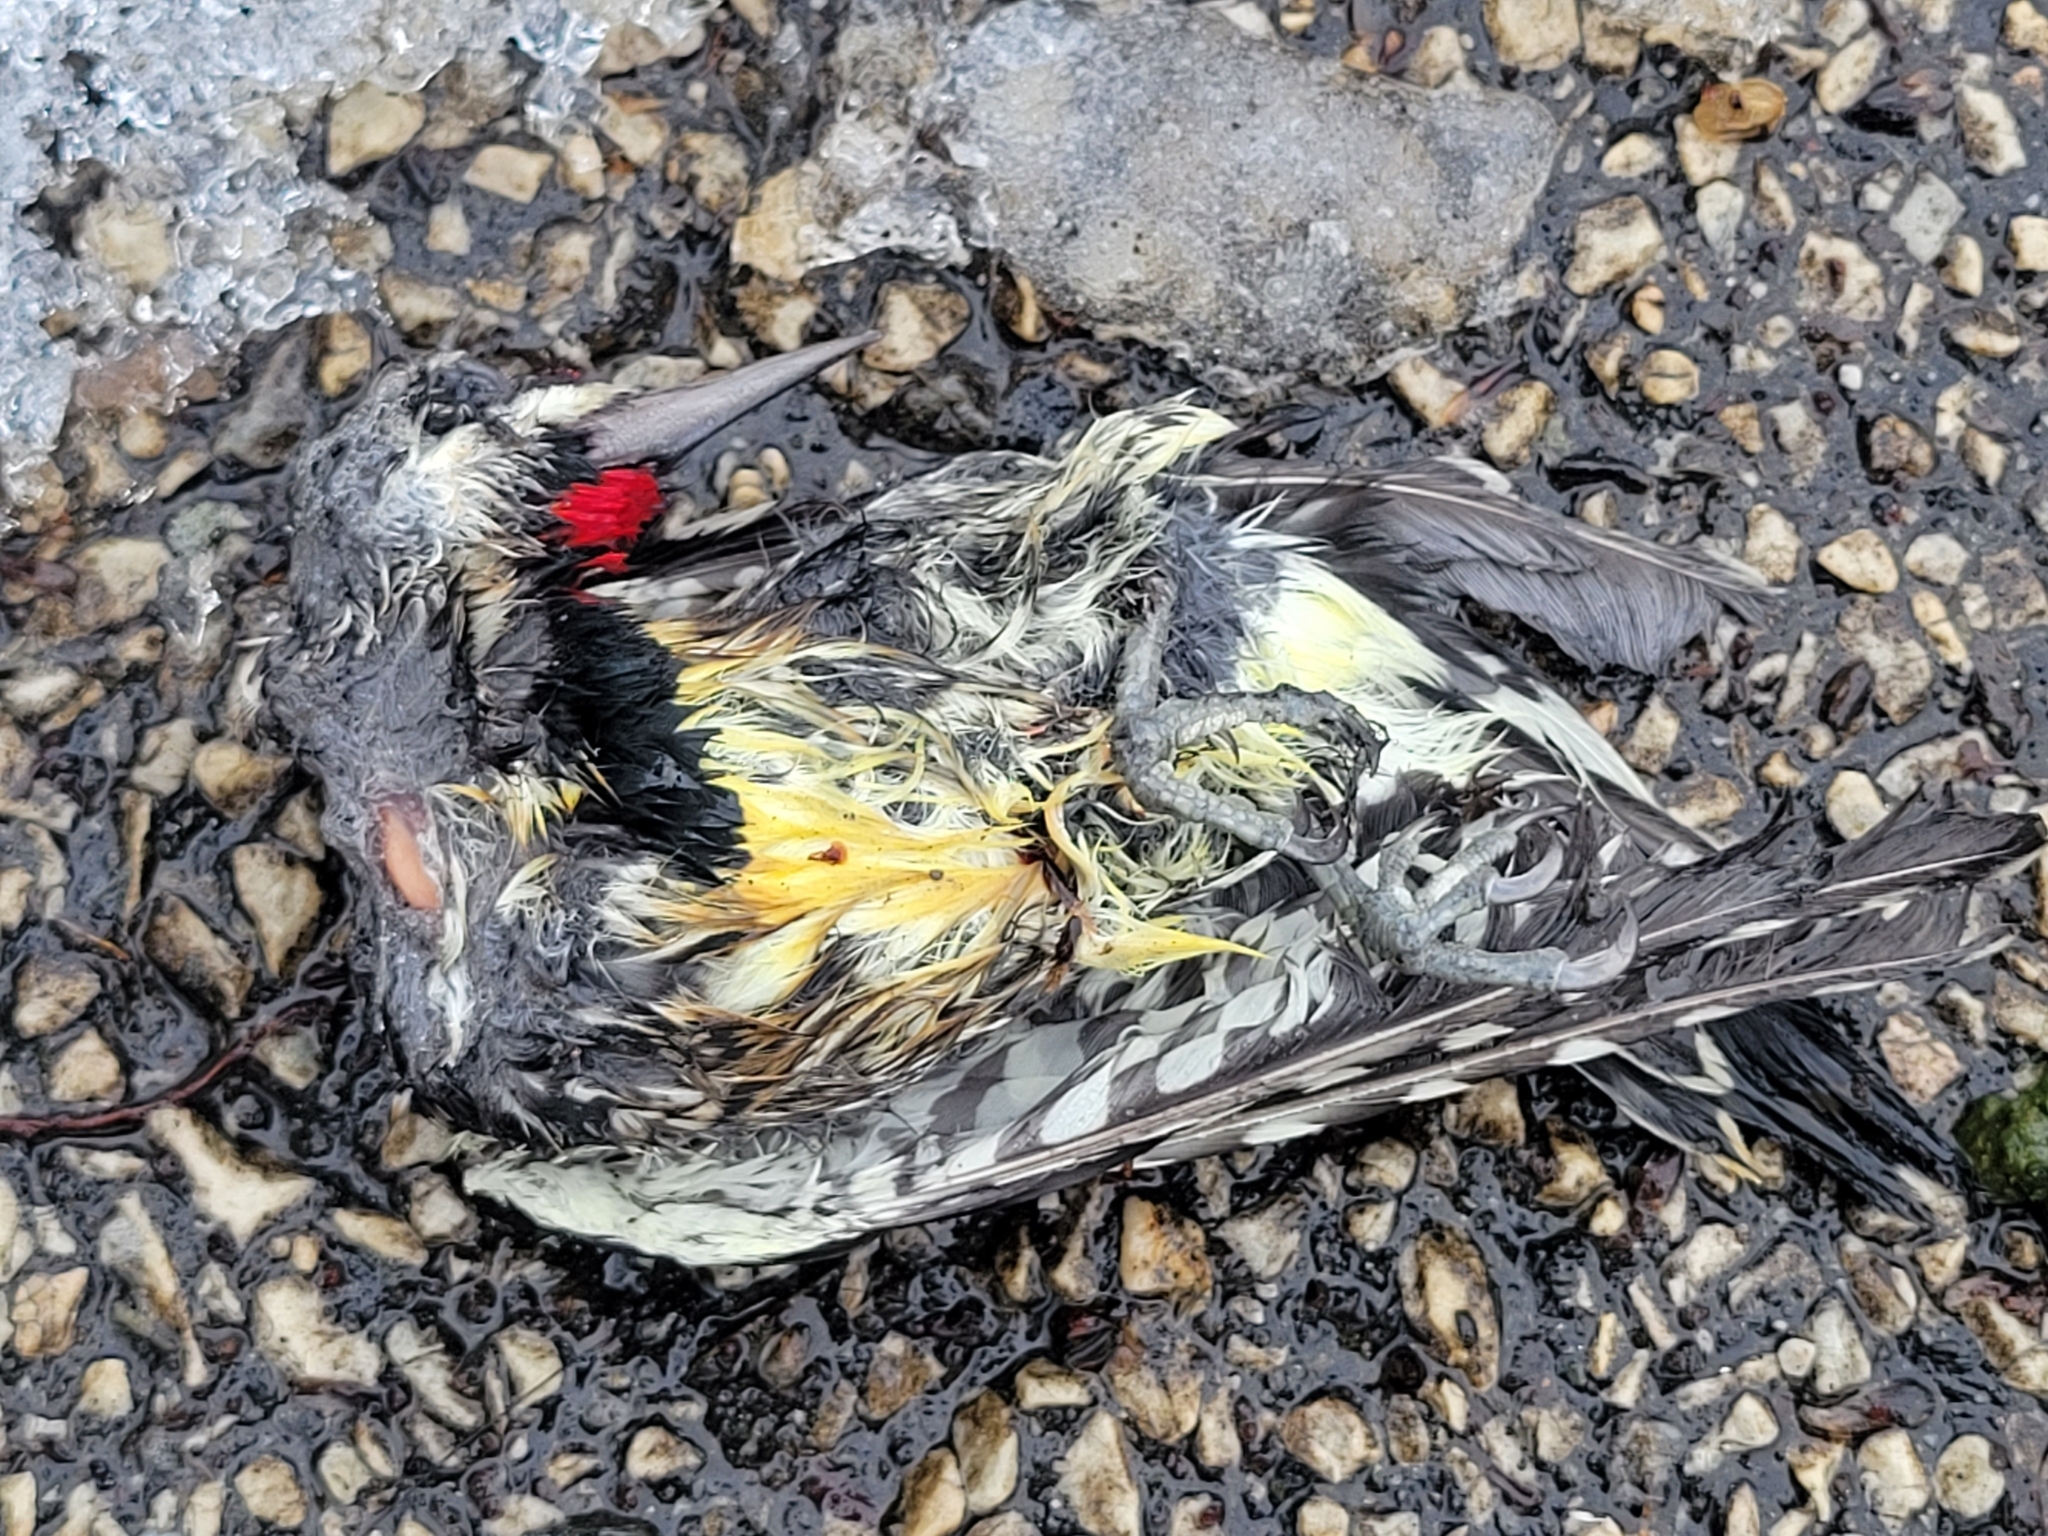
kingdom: Animalia
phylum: Chordata
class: Aves
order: Piciformes
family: Picidae
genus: Sphyrapicus
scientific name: Sphyrapicus varius
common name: Yellow-bellied sapsucker
